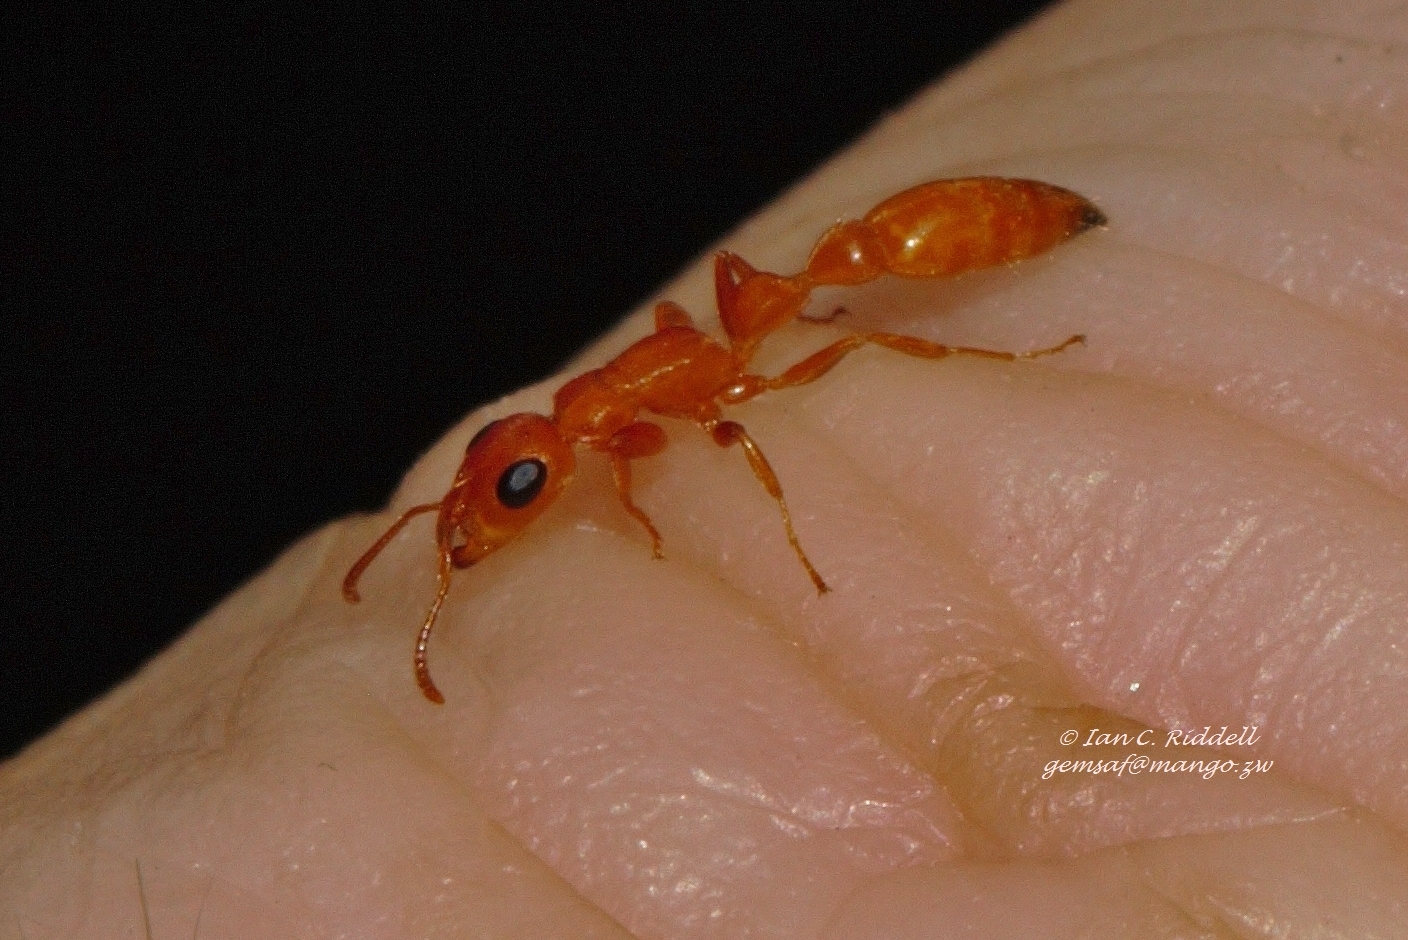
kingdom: Animalia
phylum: Arthropoda
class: Insecta
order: Hymenoptera
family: Formicidae
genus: Tetraponera
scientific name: Tetraponera natalensis
